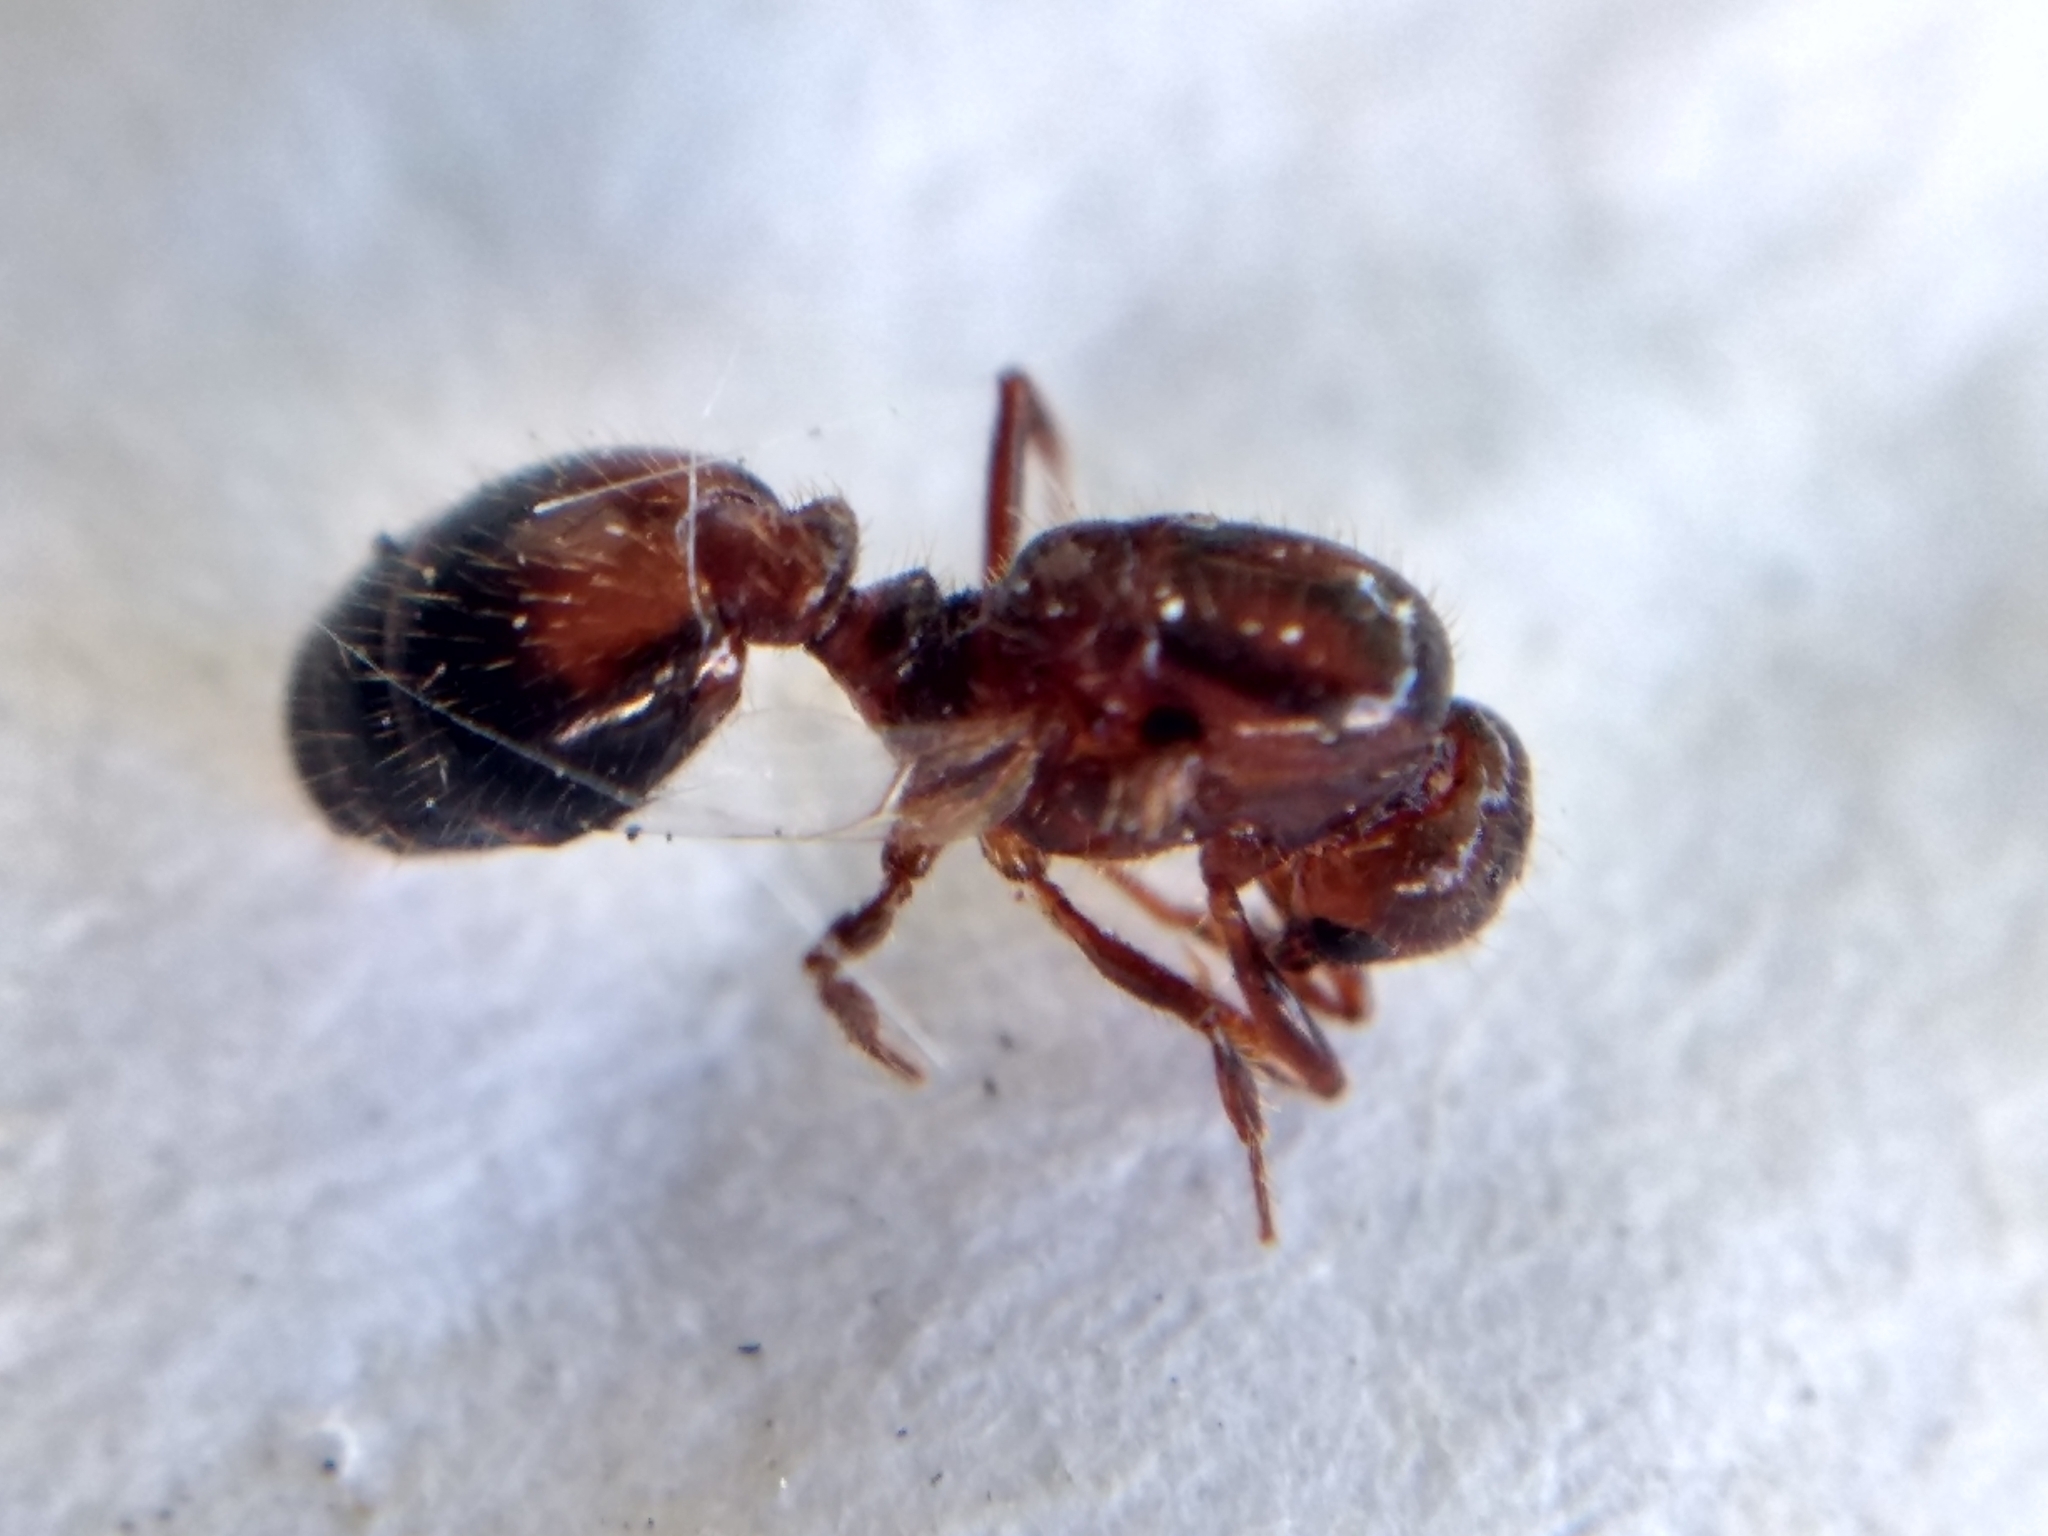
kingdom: Animalia
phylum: Arthropoda
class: Insecta
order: Hymenoptera
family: Formicidae
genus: Solenopsis
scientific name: Solenopsis xyloni
